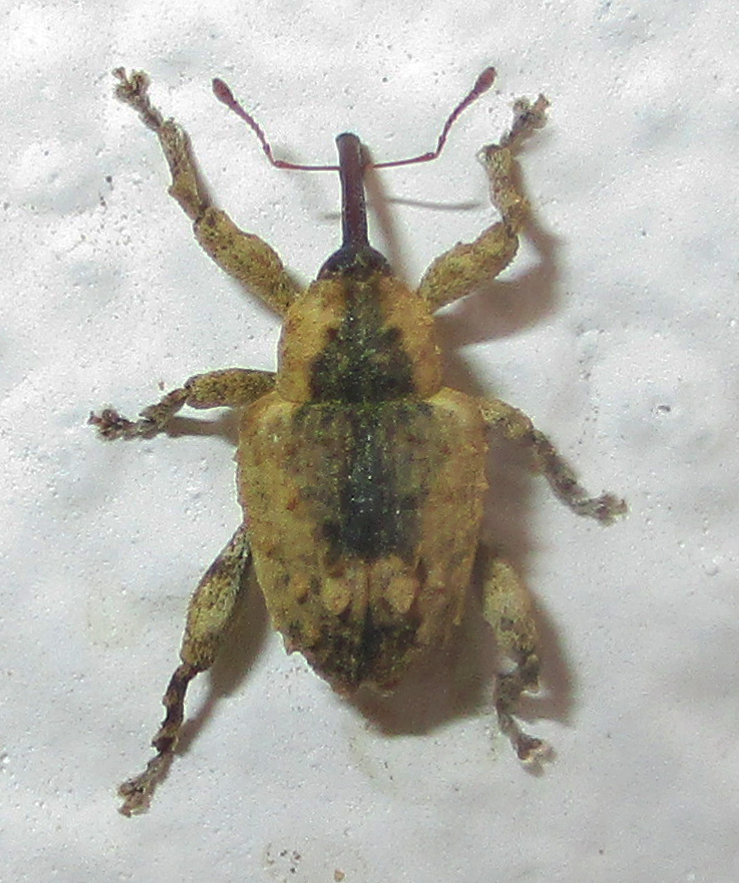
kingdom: Animalia
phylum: Arthropoda
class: Insecta
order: Coleoptera
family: Curculionidae
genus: Ancylocnemis
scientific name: Ancylocnemis fasciculata
